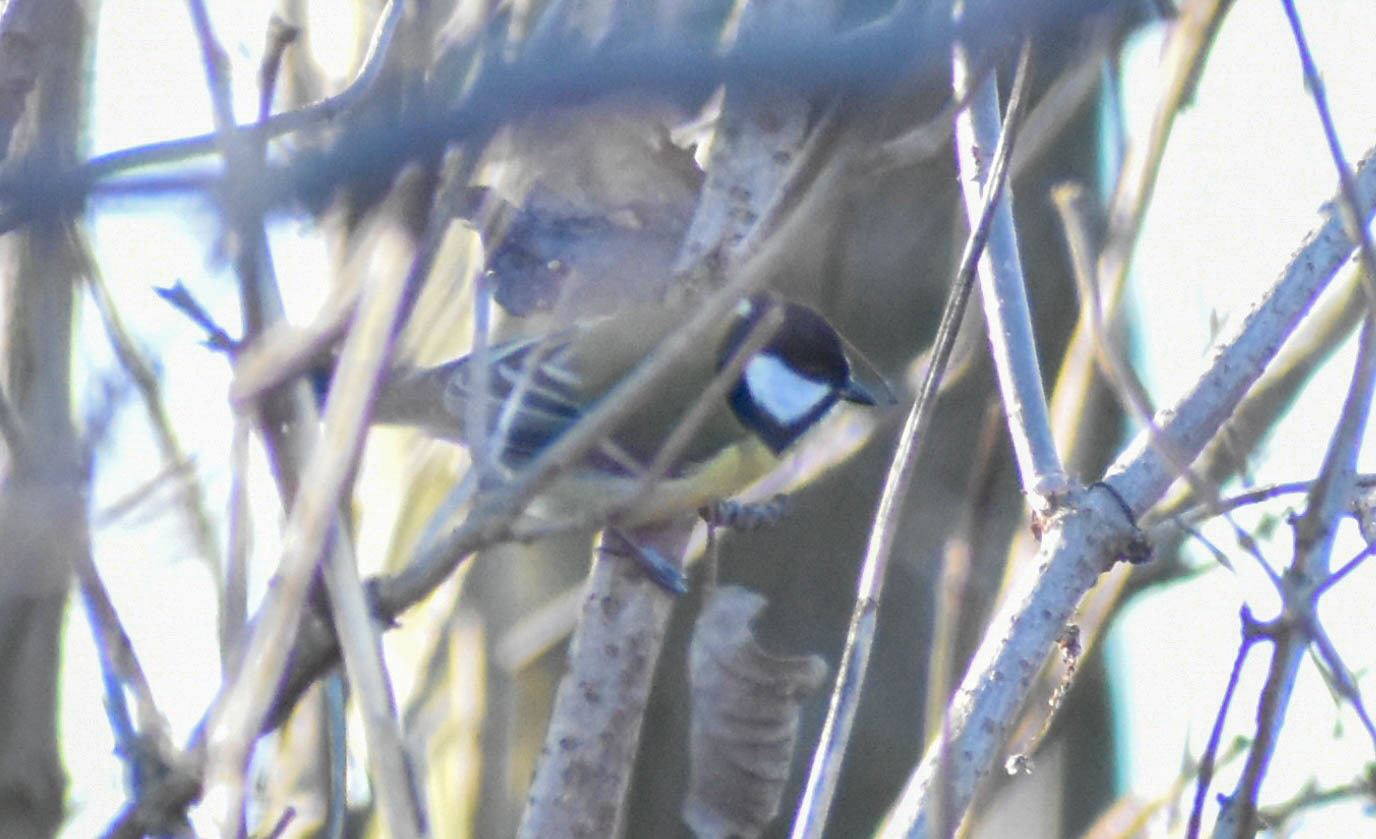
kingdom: Animalia
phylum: Chordata
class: Aves
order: Passeriformes
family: Paridae
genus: Parus
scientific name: Parus major
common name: Great tit
